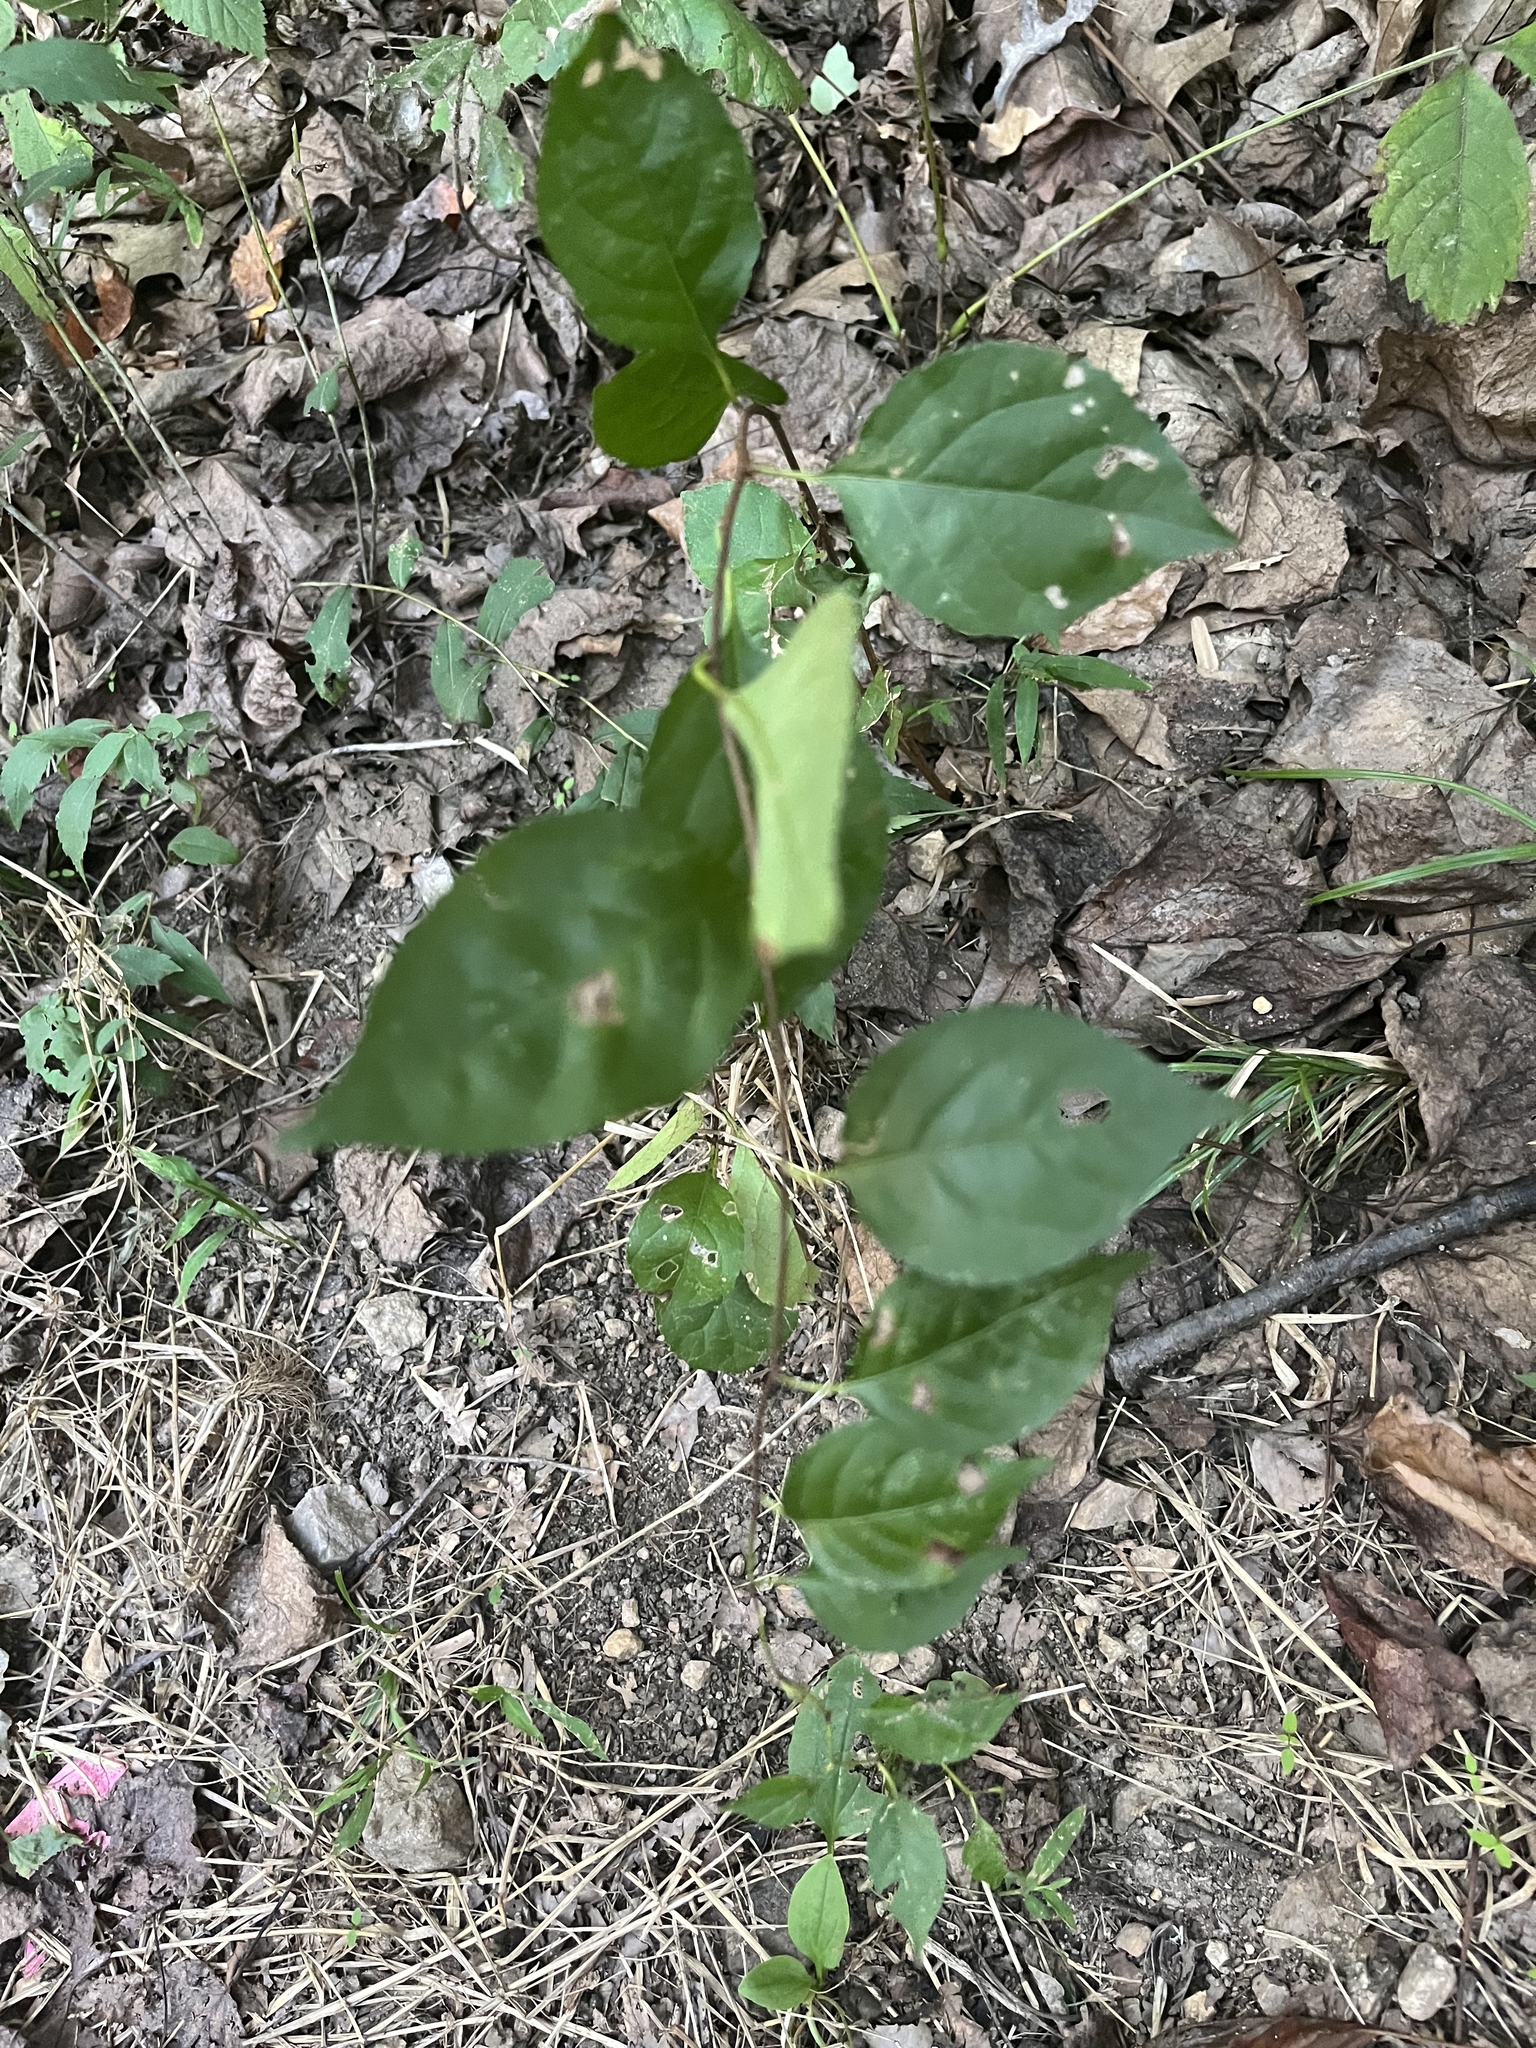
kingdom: Plantae
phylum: Tracheophyta
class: Magnoliopsida
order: Celastrales
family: Celastraceae
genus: Celastrus
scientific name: Celastrus orbiculatus
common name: Oriental bittersweet
